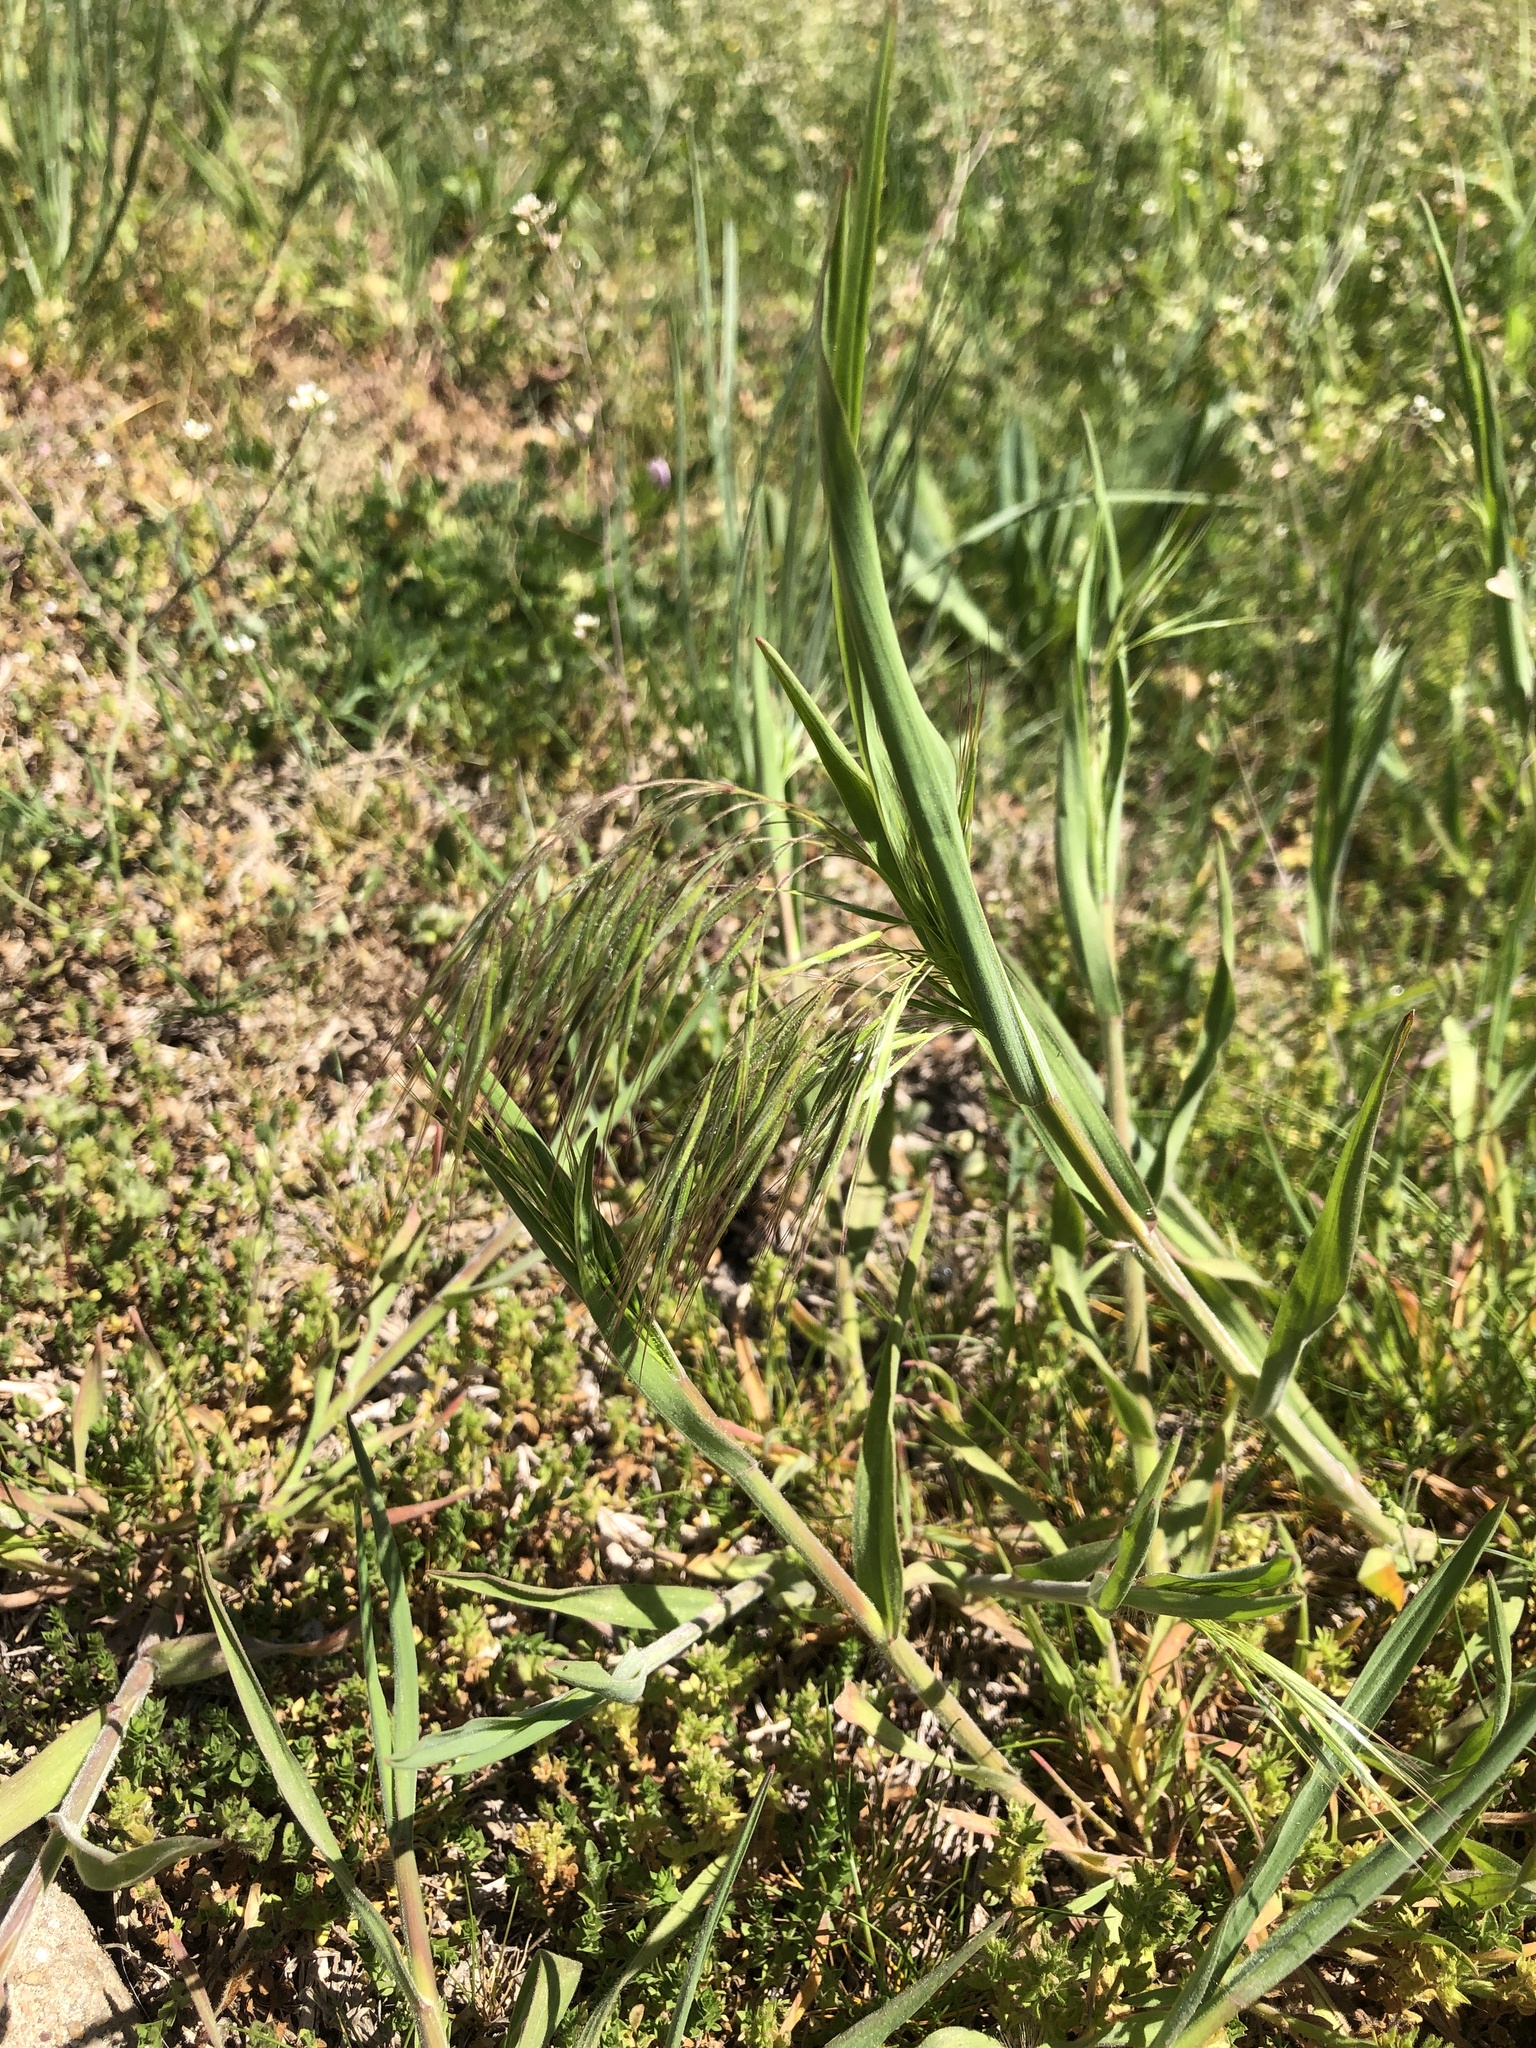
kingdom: Plantae
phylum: Tracheophyta
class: Liliopsida
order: Poales
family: Poaceae
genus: Bromus
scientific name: Bromus tectorum
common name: Cheatgrass
